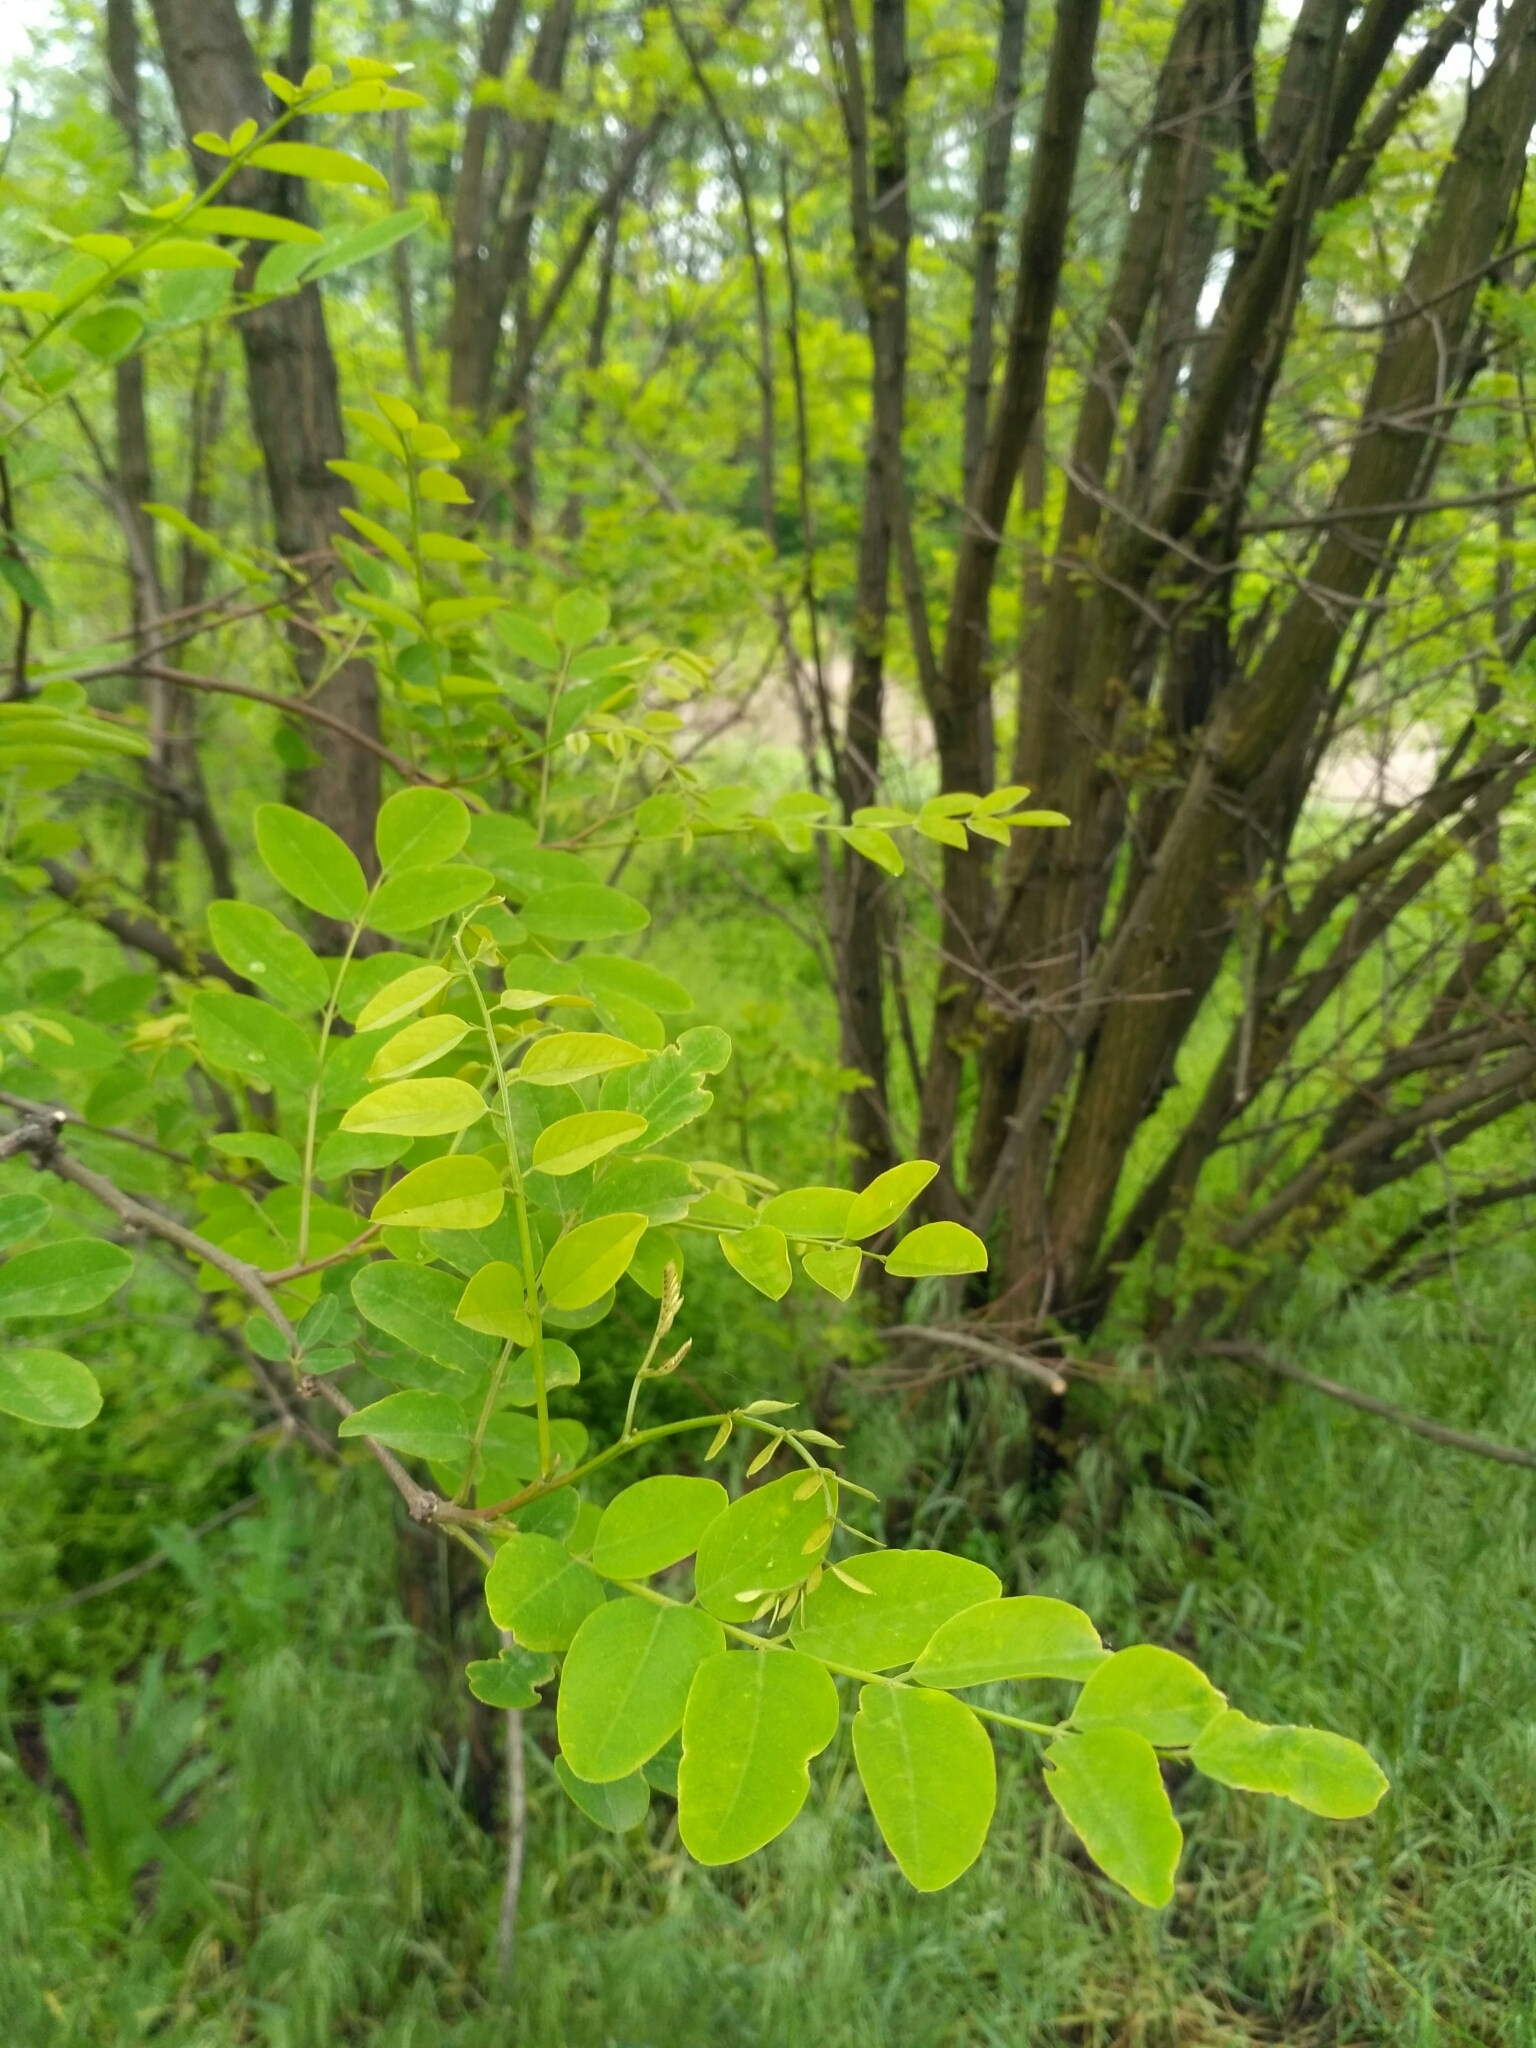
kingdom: Plantae
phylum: Tracheophyta
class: Magnoliopsida
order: Fabales
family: Fabaceae
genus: Robinia
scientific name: Robinia pseudoacacia
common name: Black locust
